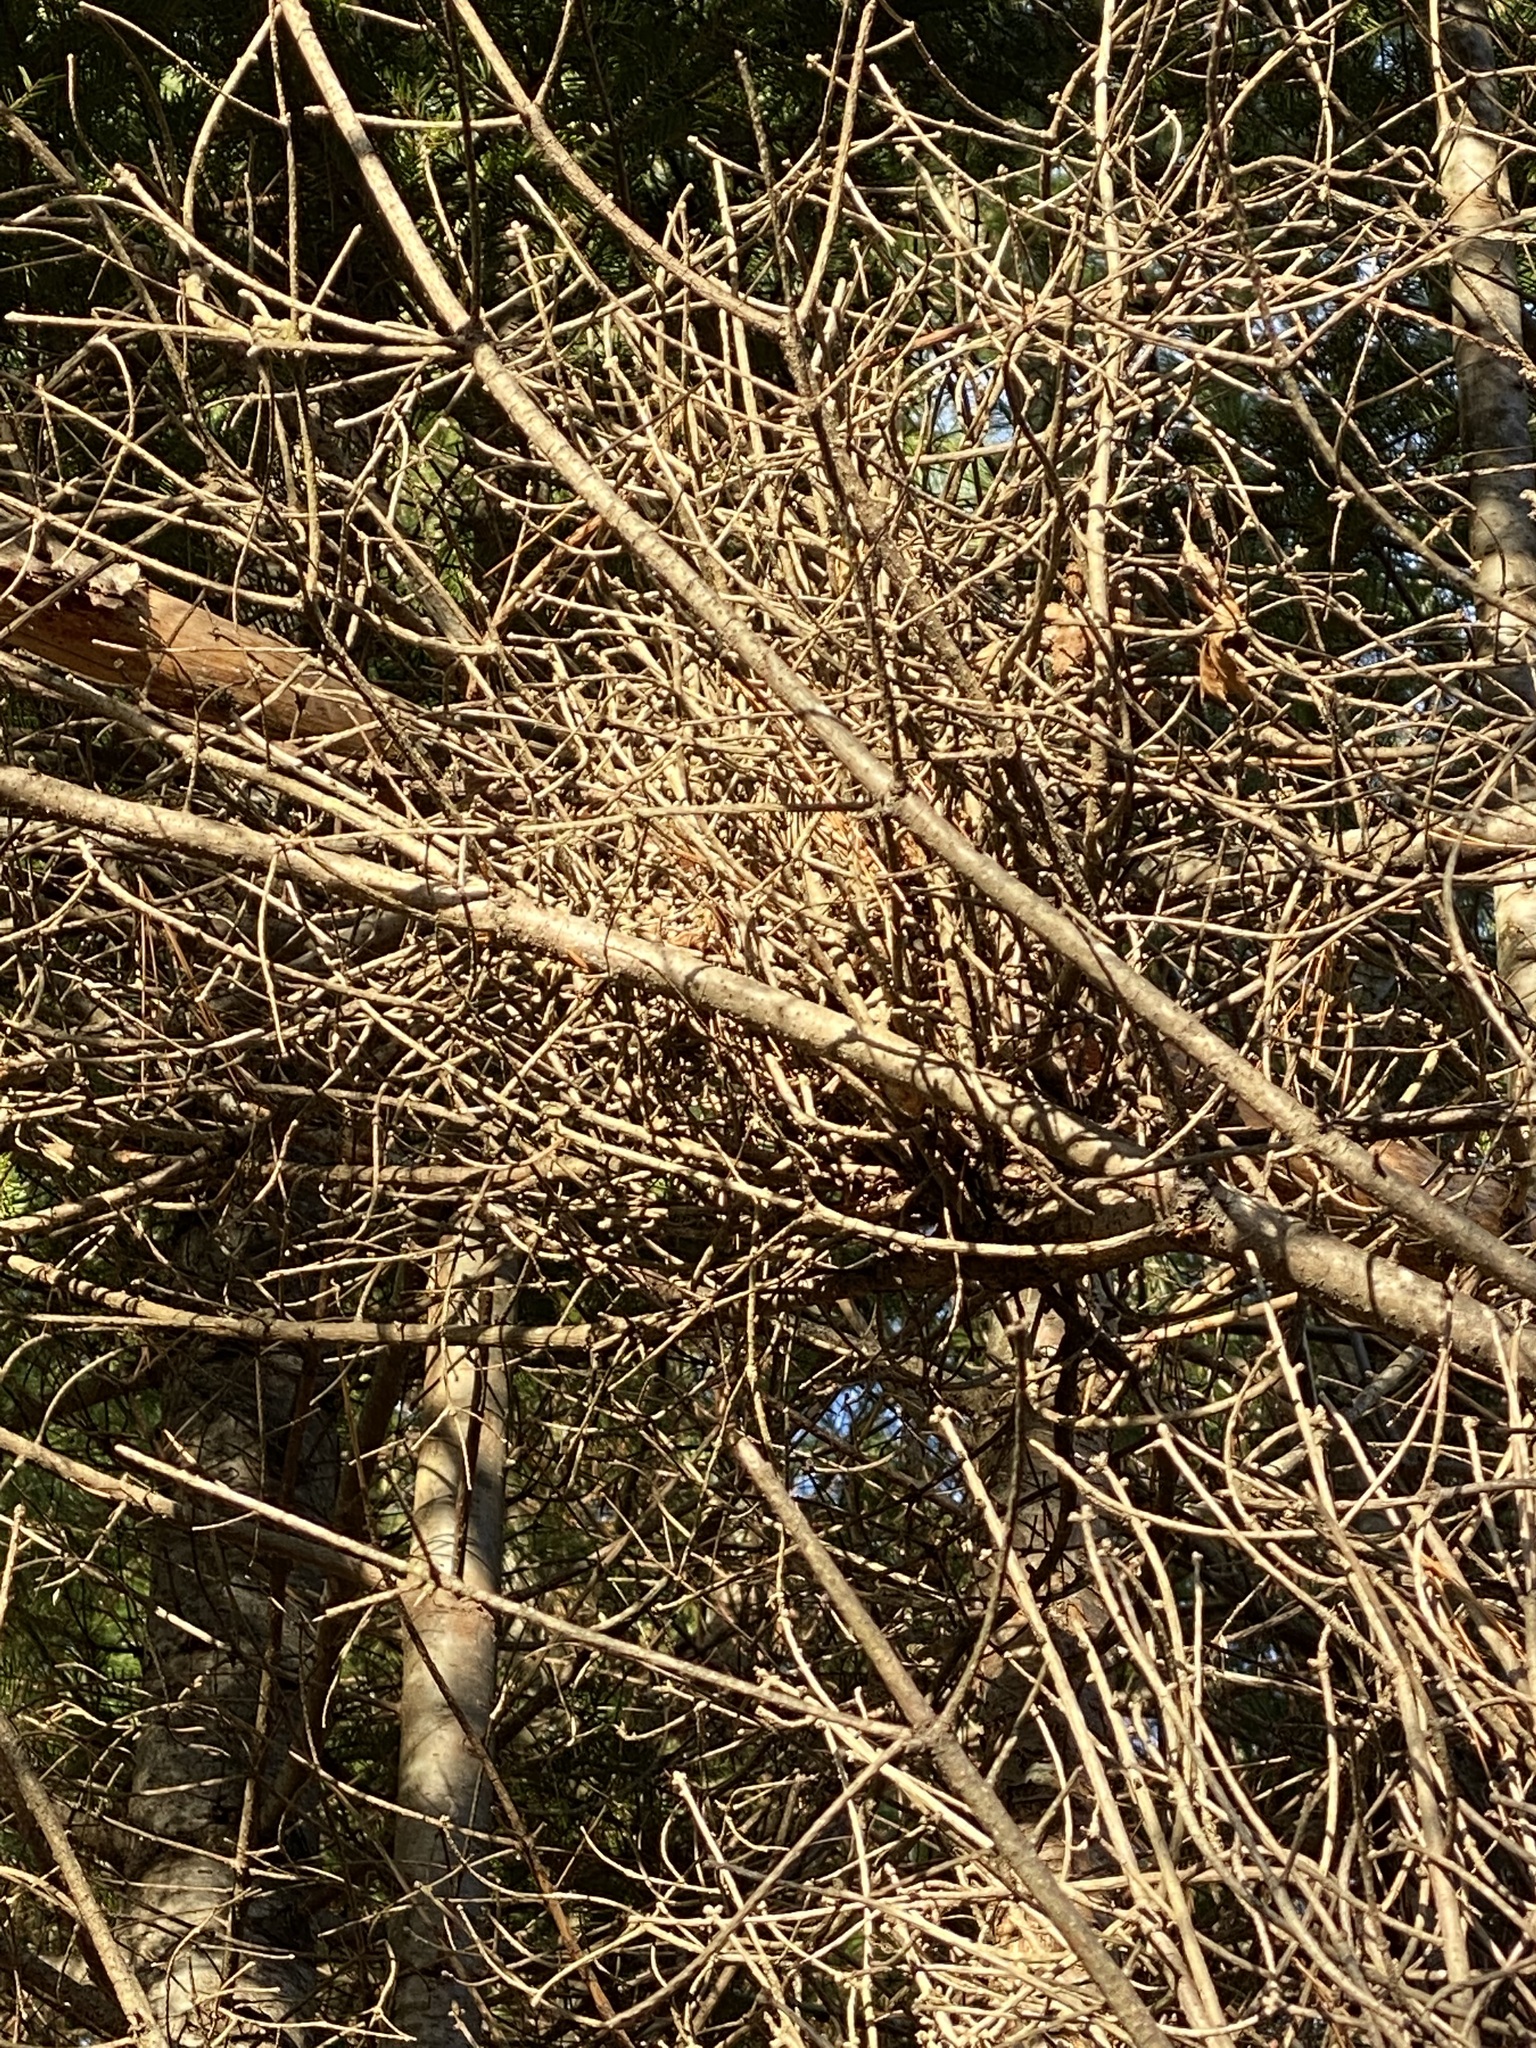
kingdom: Fungi
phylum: Basidiomycota
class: Pucciniomycetes
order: Pucciniales
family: Pucciniastraceae
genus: Melampsorella
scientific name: Melampsorella elatina
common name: Fir broom rust
